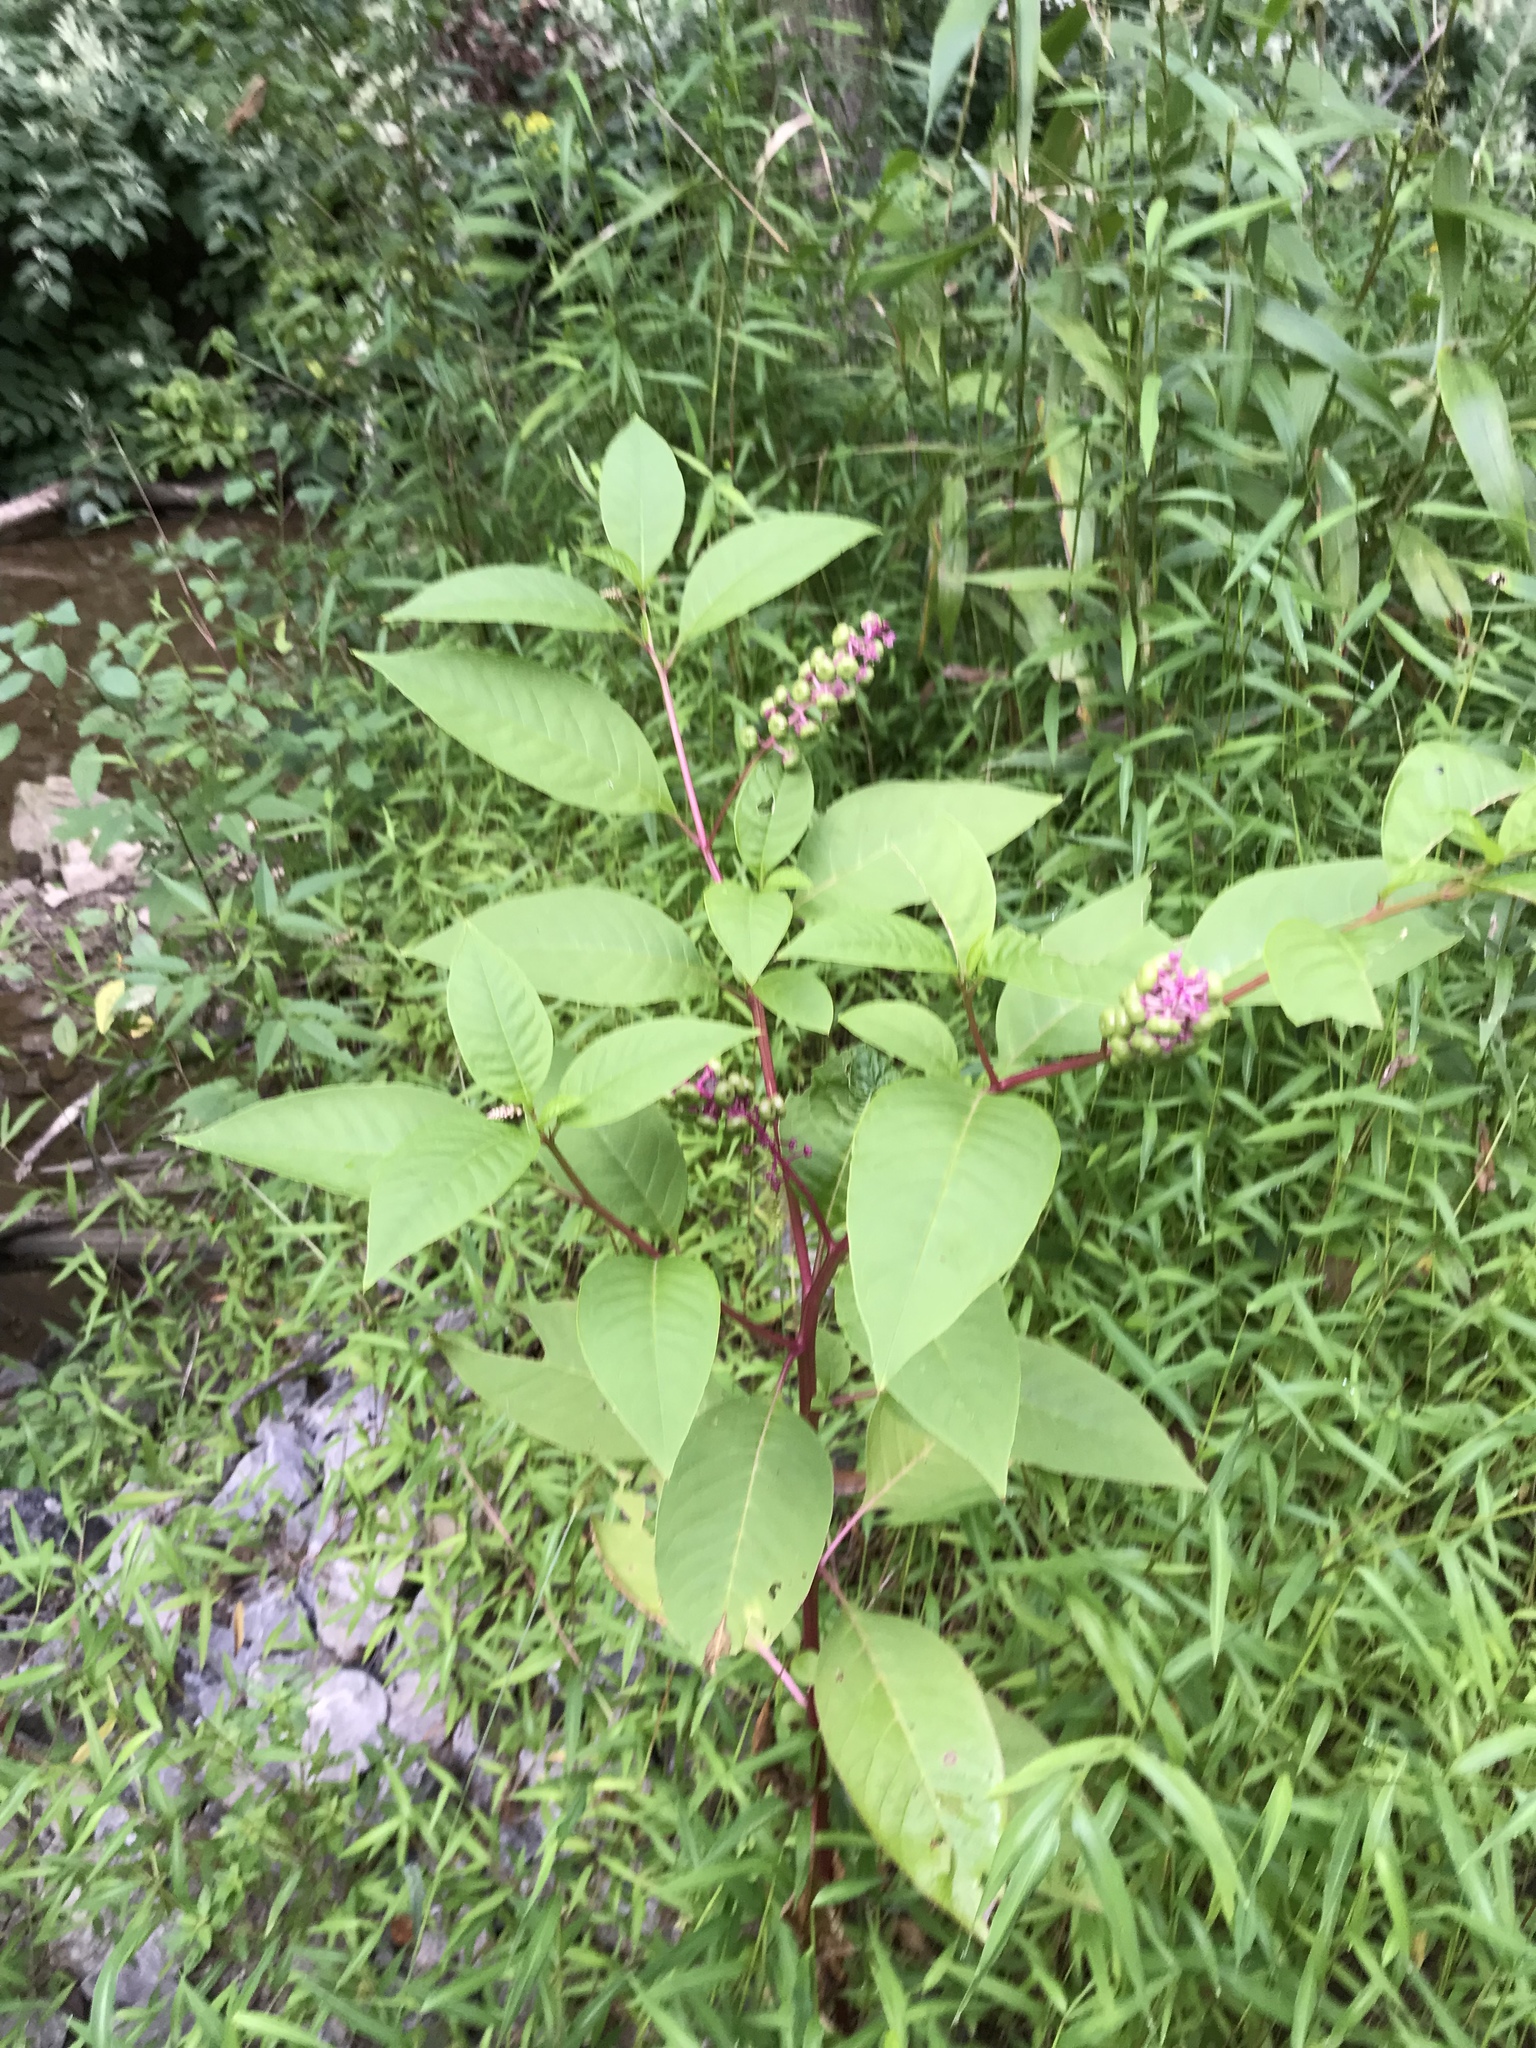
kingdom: Plantae
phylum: Tracheophyta
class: Magnoliopsida
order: Caryophyllales
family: Phytolaccaceae
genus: Phytolacca
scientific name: Phytolacca americana
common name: American pokeweed
